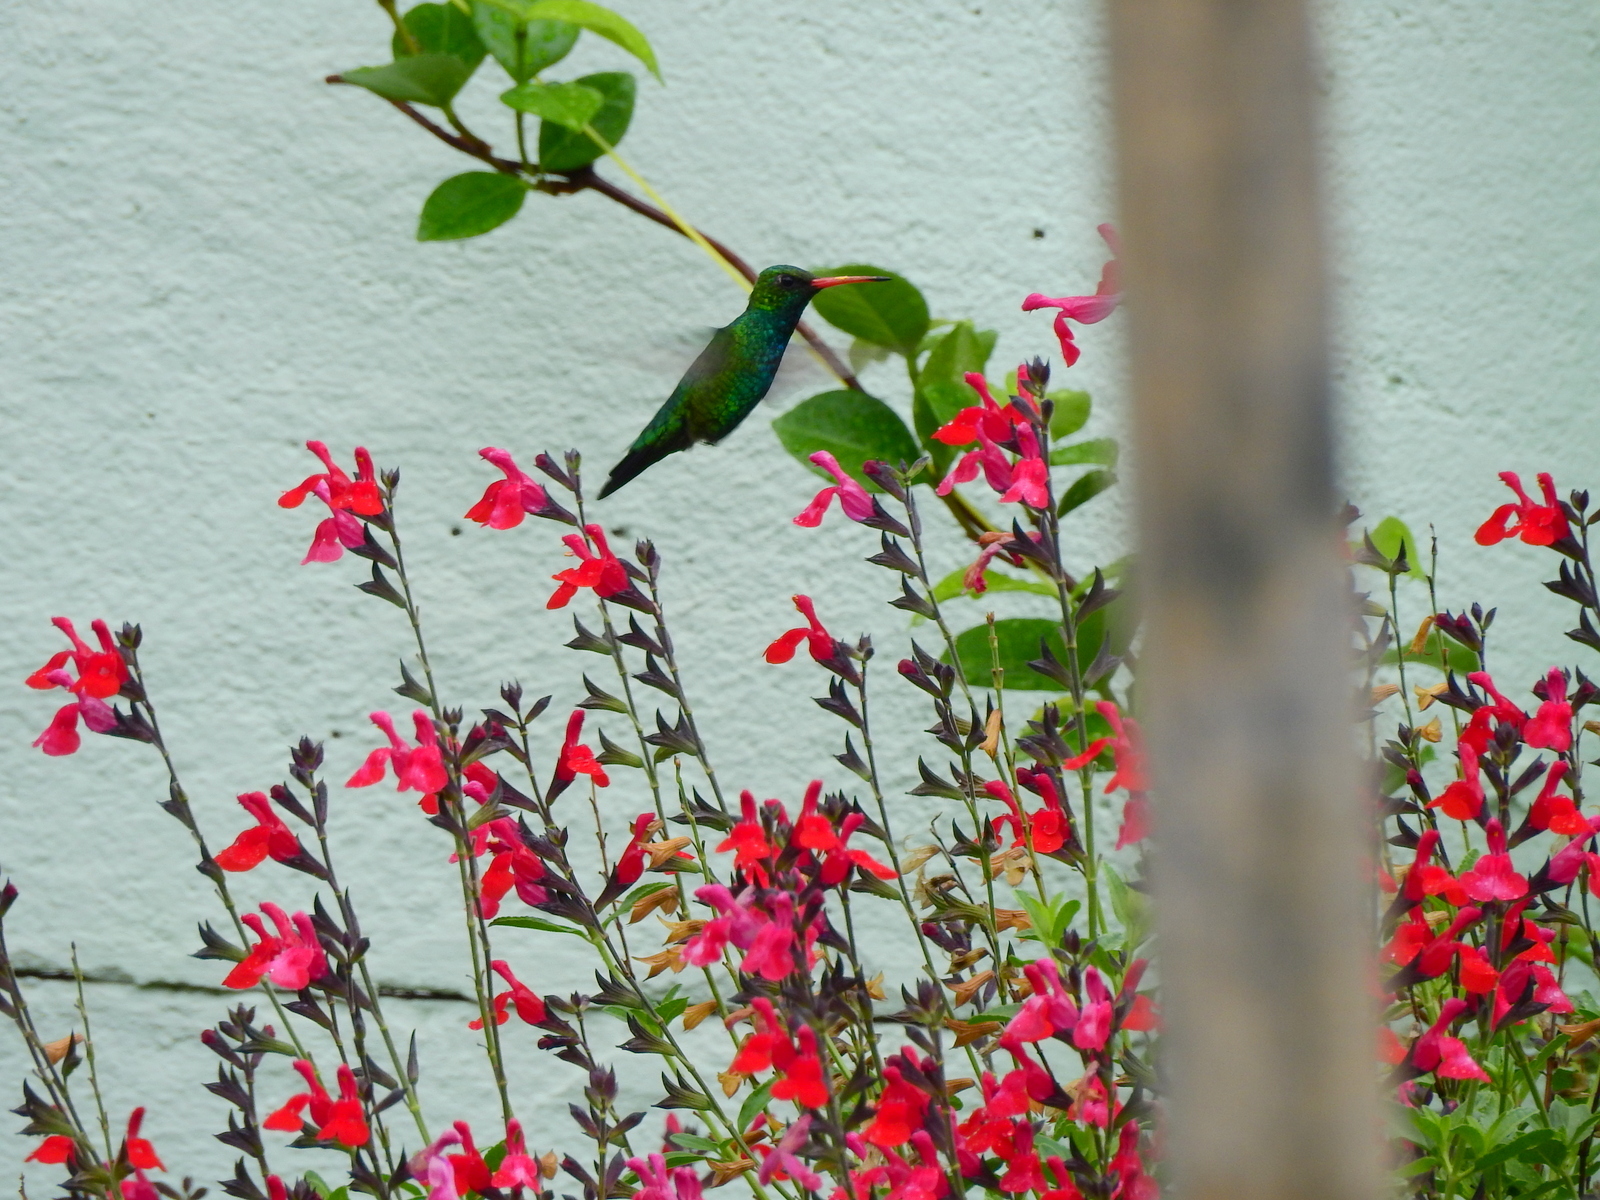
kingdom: Animalia
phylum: Chordata
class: Aves
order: Apodiformes
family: Trochilidae
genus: Chlorostilbon
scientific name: Chlorostilbon lucidus
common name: Glittering-bellied emerald
